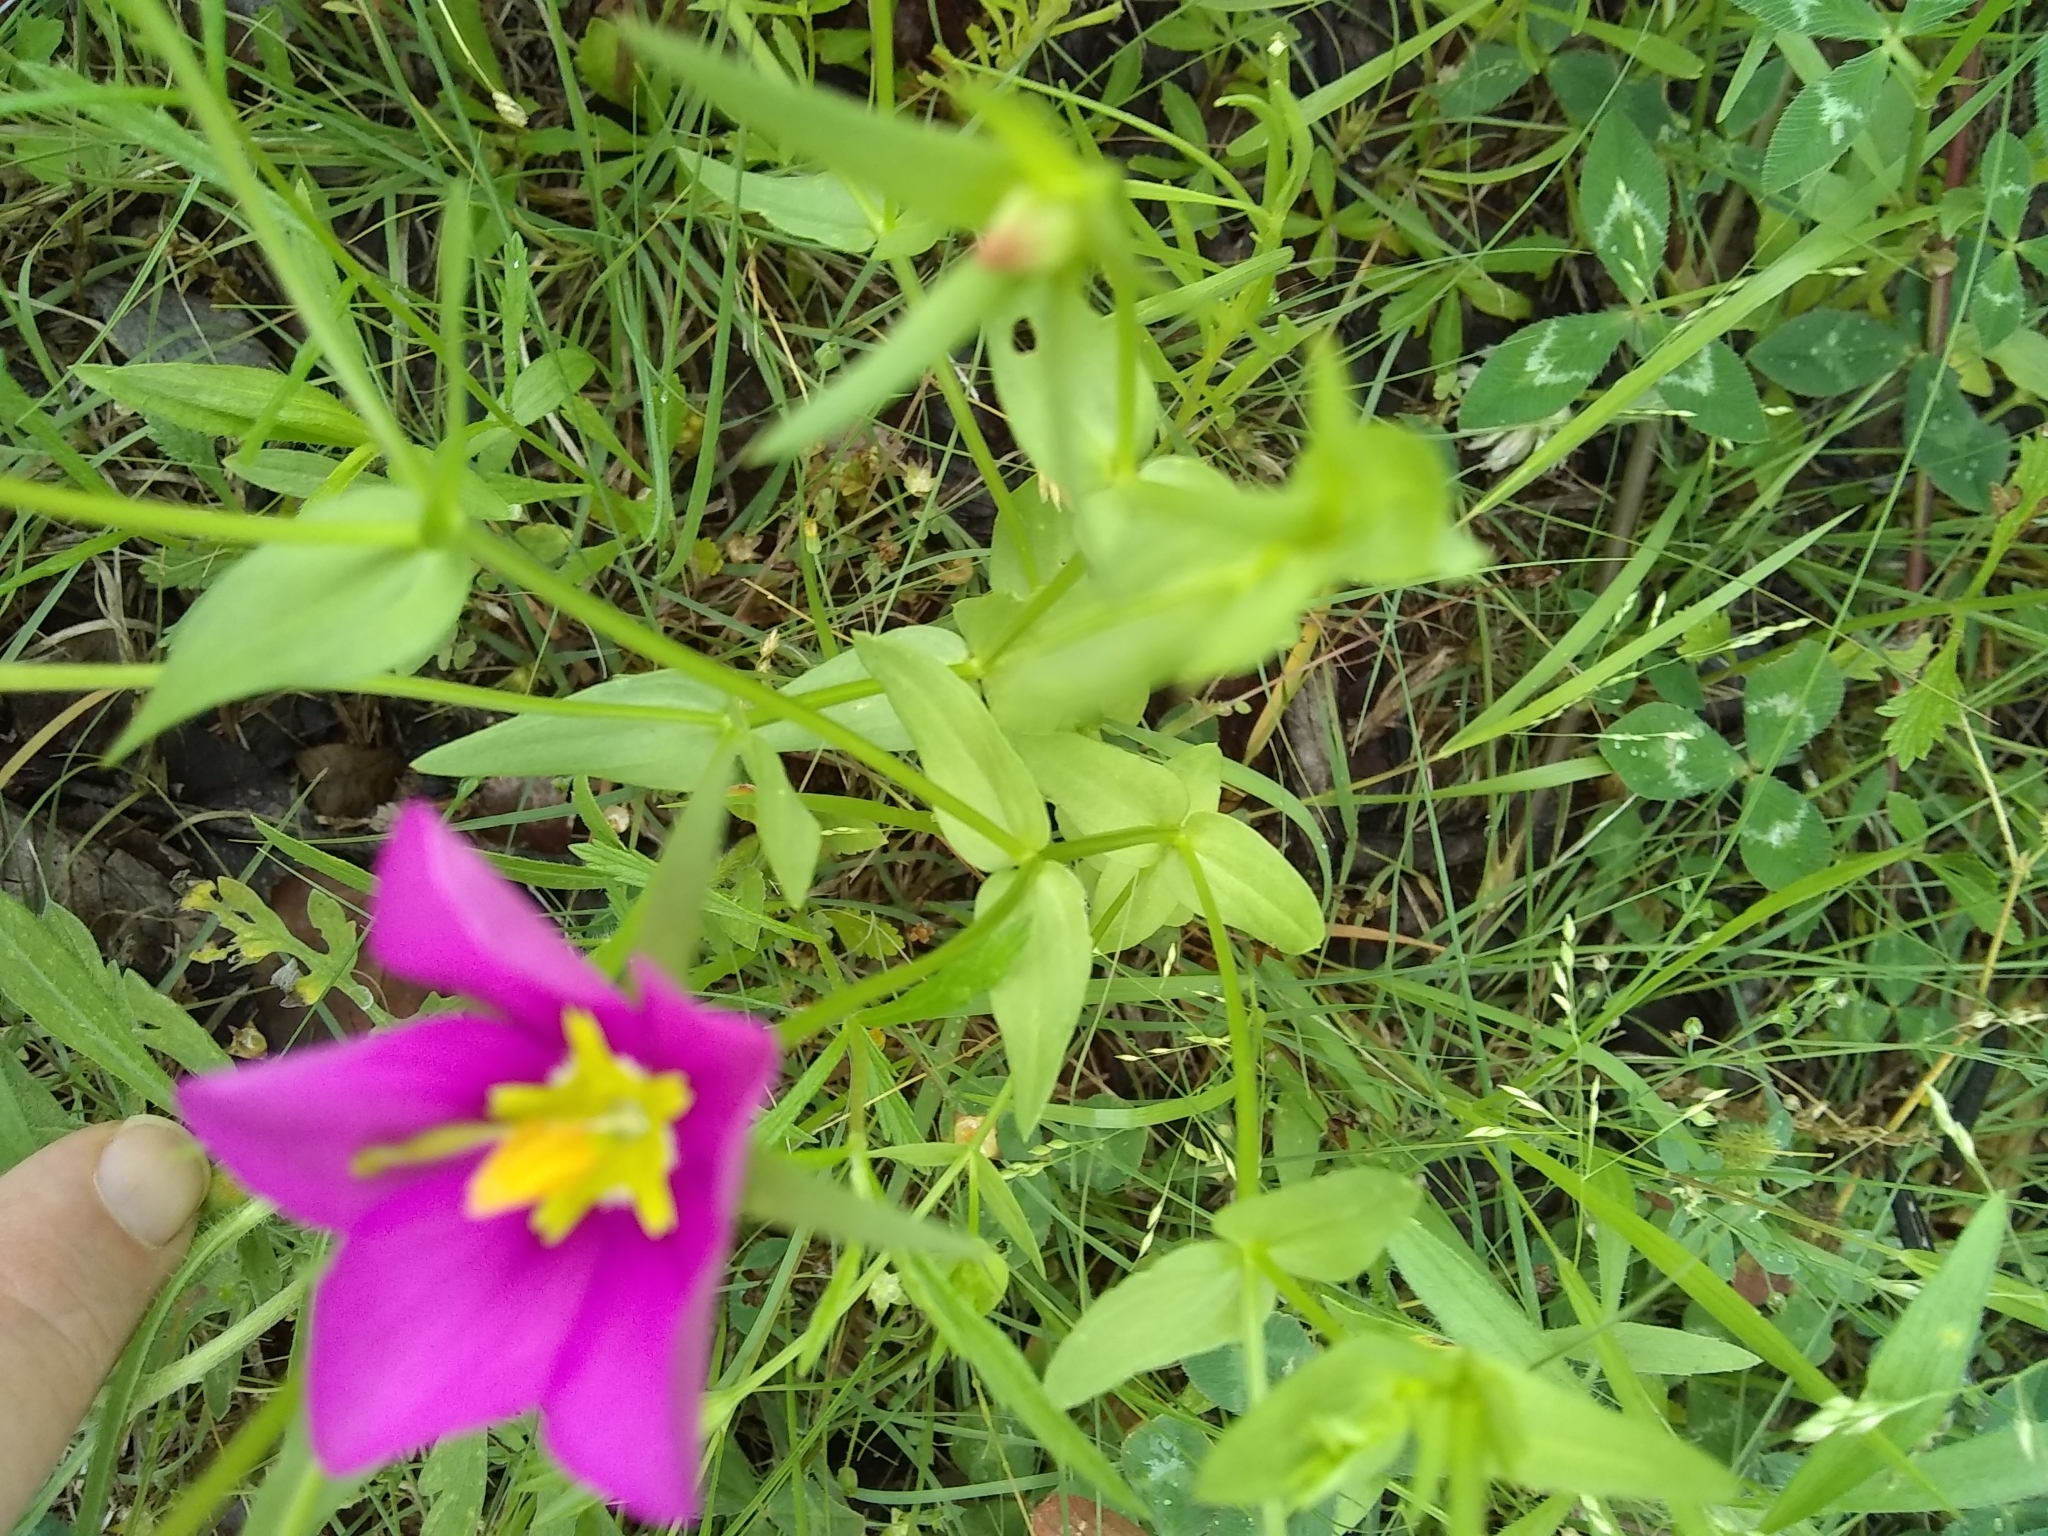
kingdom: Plantae
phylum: Tracheophyta
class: Magnoliopsida
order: Gentianales
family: Gentianaceae
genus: Sabatia
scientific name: Sabatia campestris
